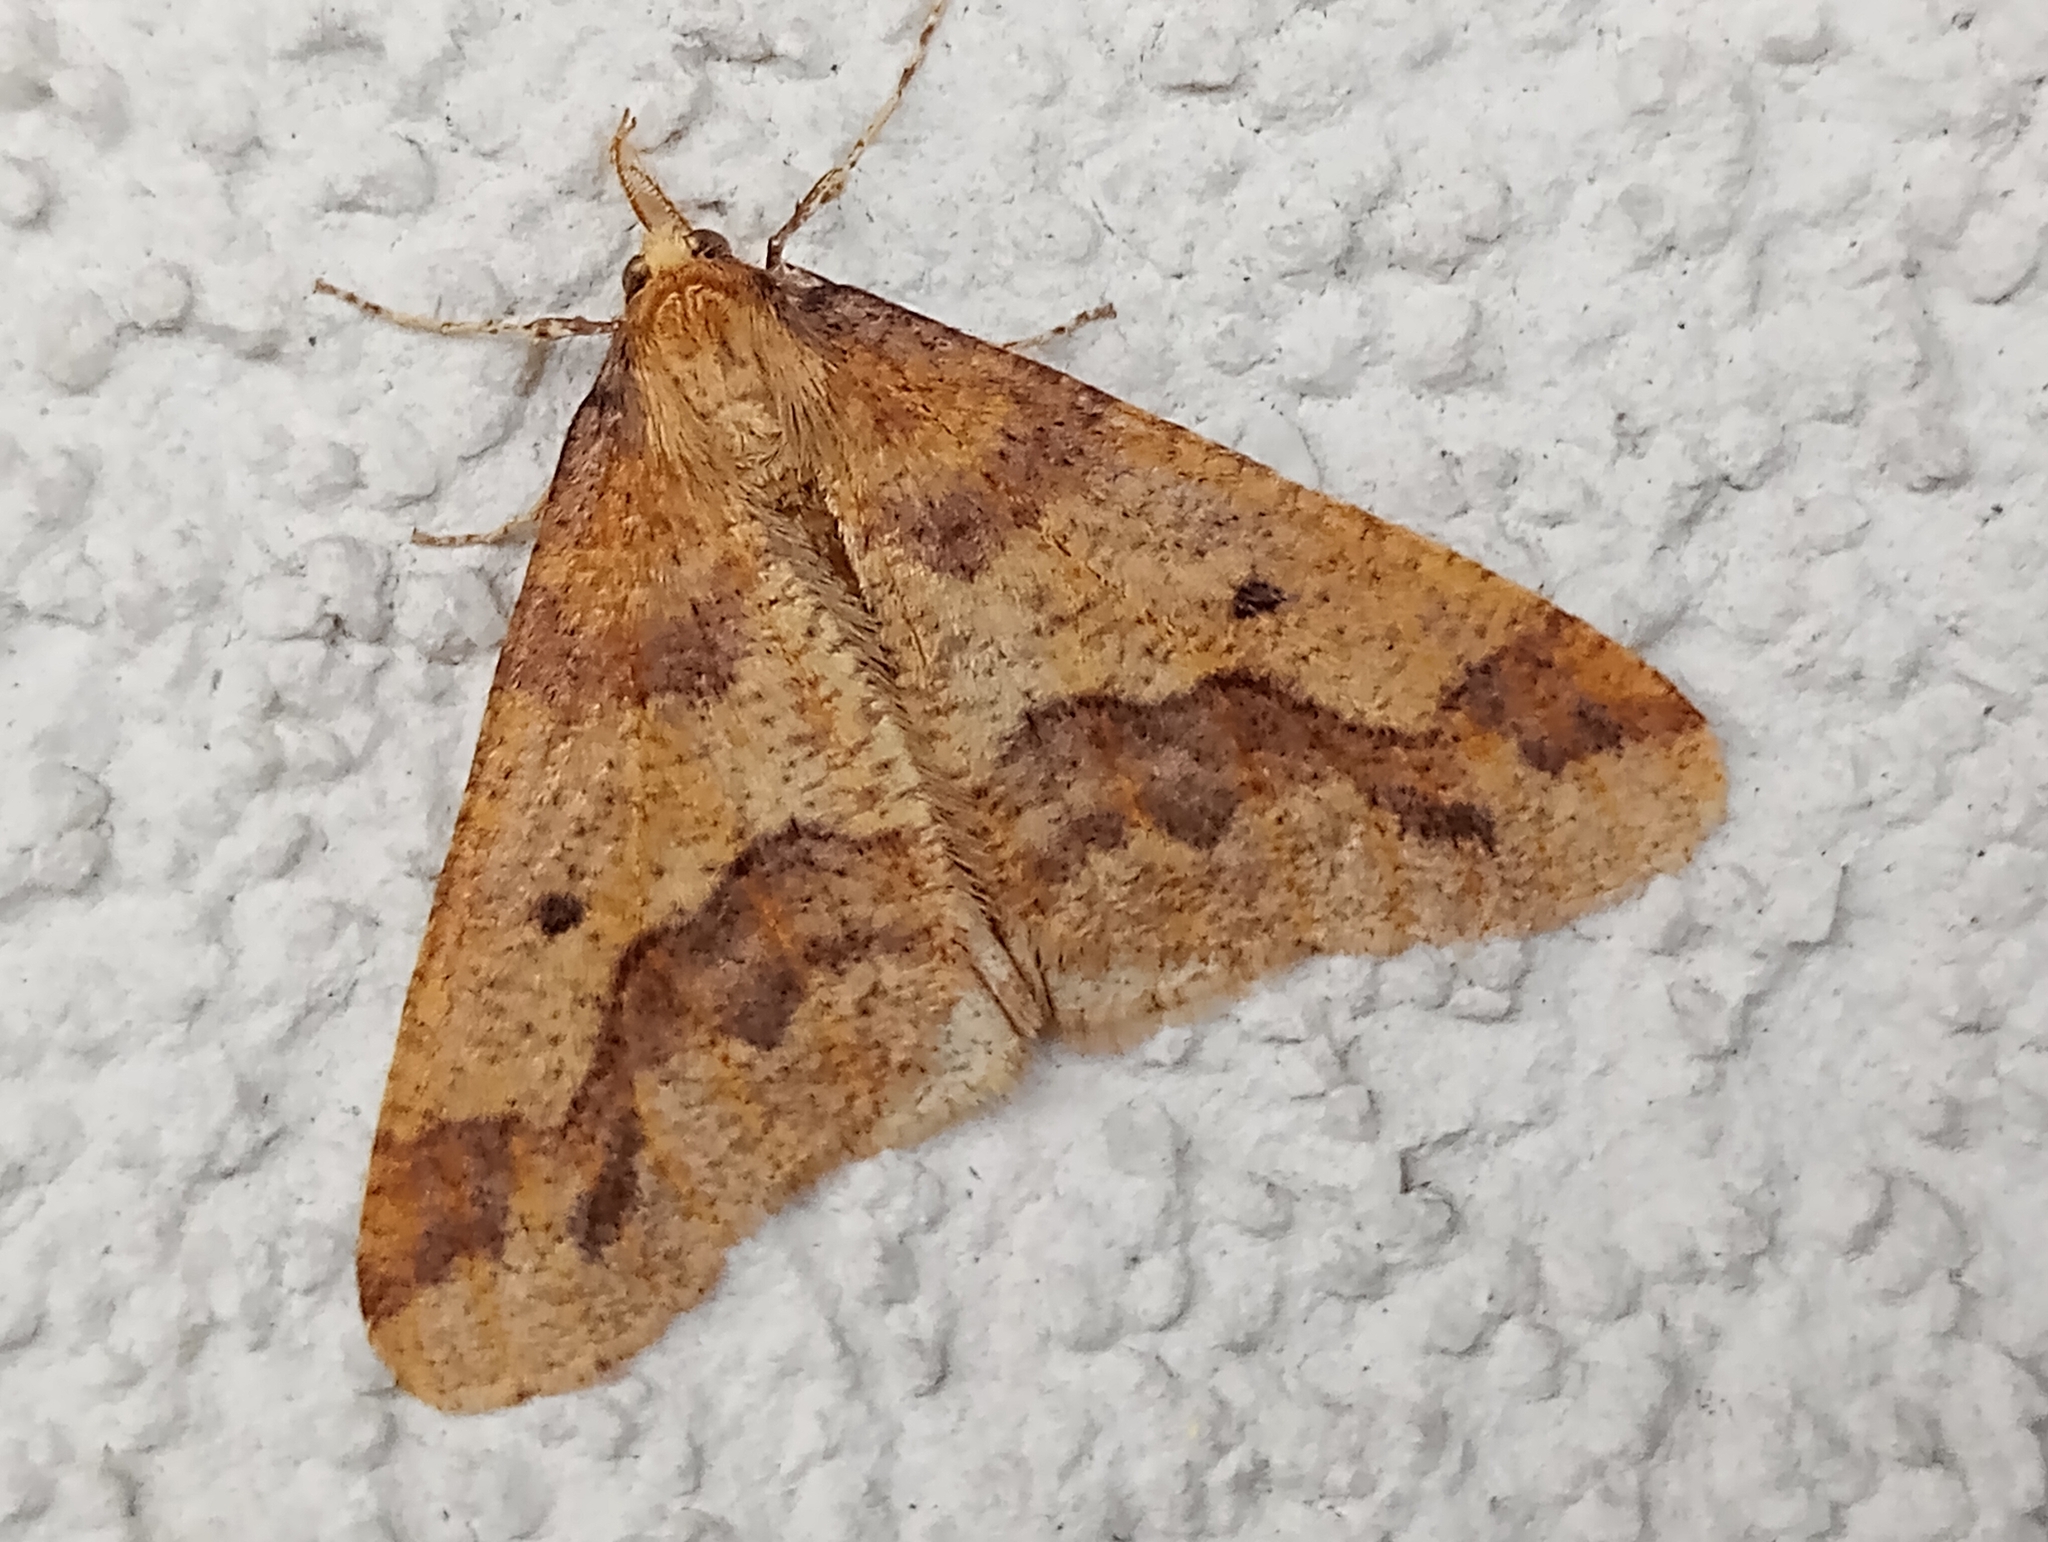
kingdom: Animalia
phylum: Arthropoda
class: Insecta
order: Lepidoptera
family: Geometridae
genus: Erannis
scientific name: Erannis defoliaria
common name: Mottled umber
